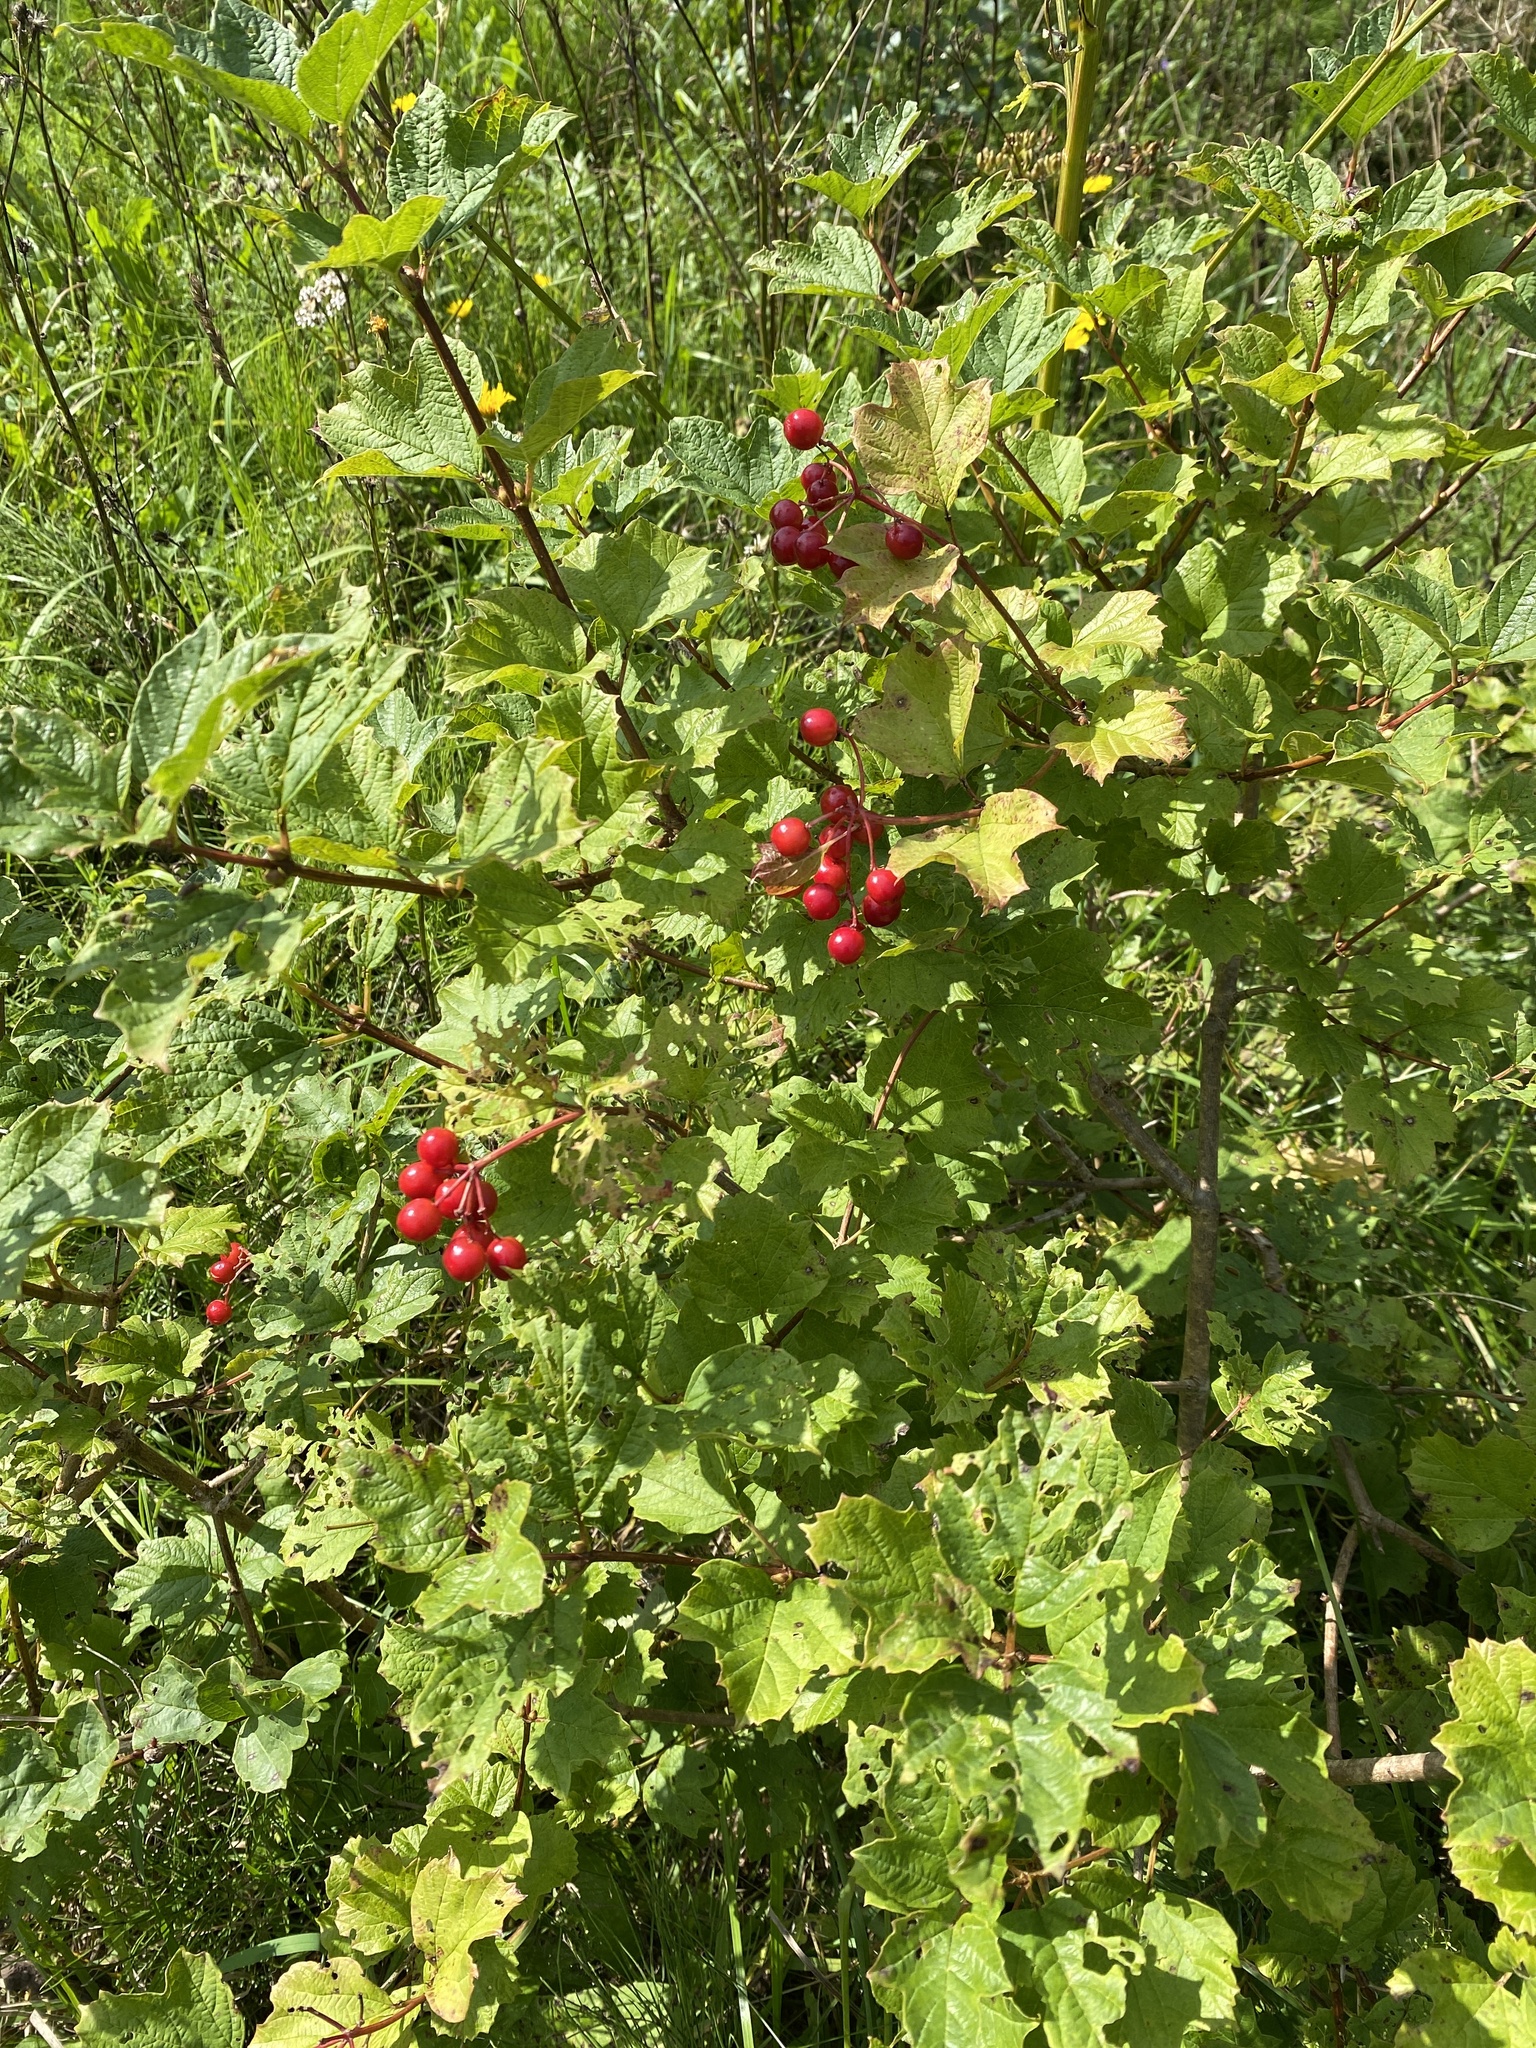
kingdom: Plantae
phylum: Tracheophyta
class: Magnoliopsida
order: Dipsacales
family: Viburnaceae
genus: Viburnum
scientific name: Viburnum opulus
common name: Guelder-rose
